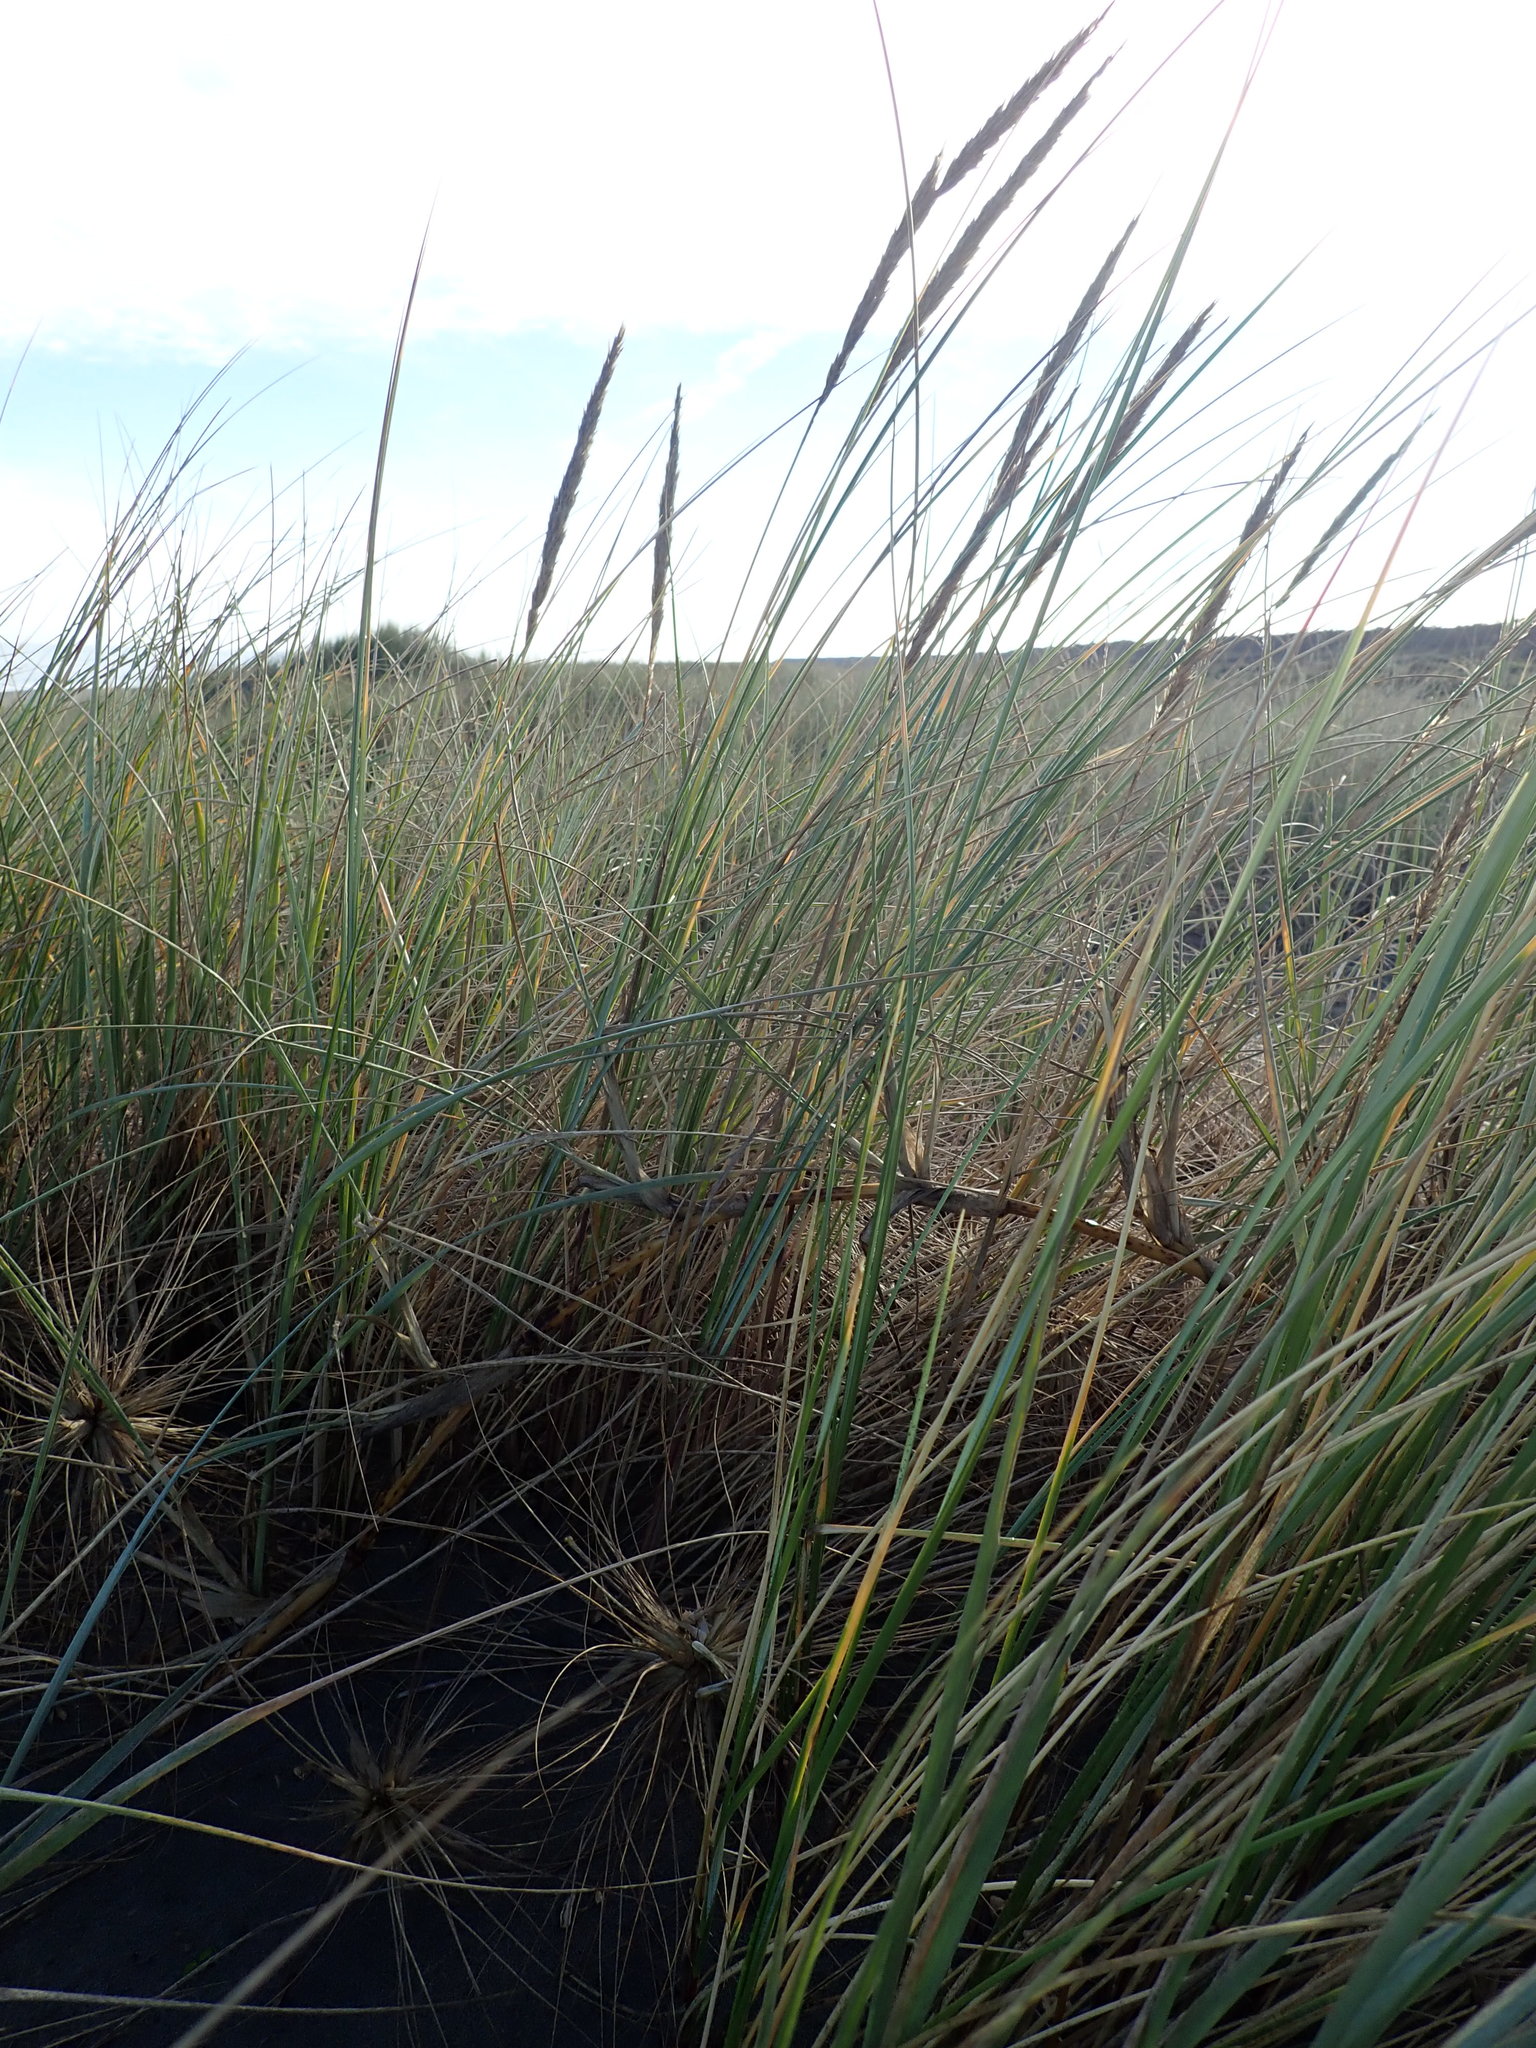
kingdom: Plantae
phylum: Tracheophyta
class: Liliopsida
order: Poales
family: Poaceae
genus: Calamagrostis
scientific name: Calamagrostis arenaria
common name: European beachgrass
